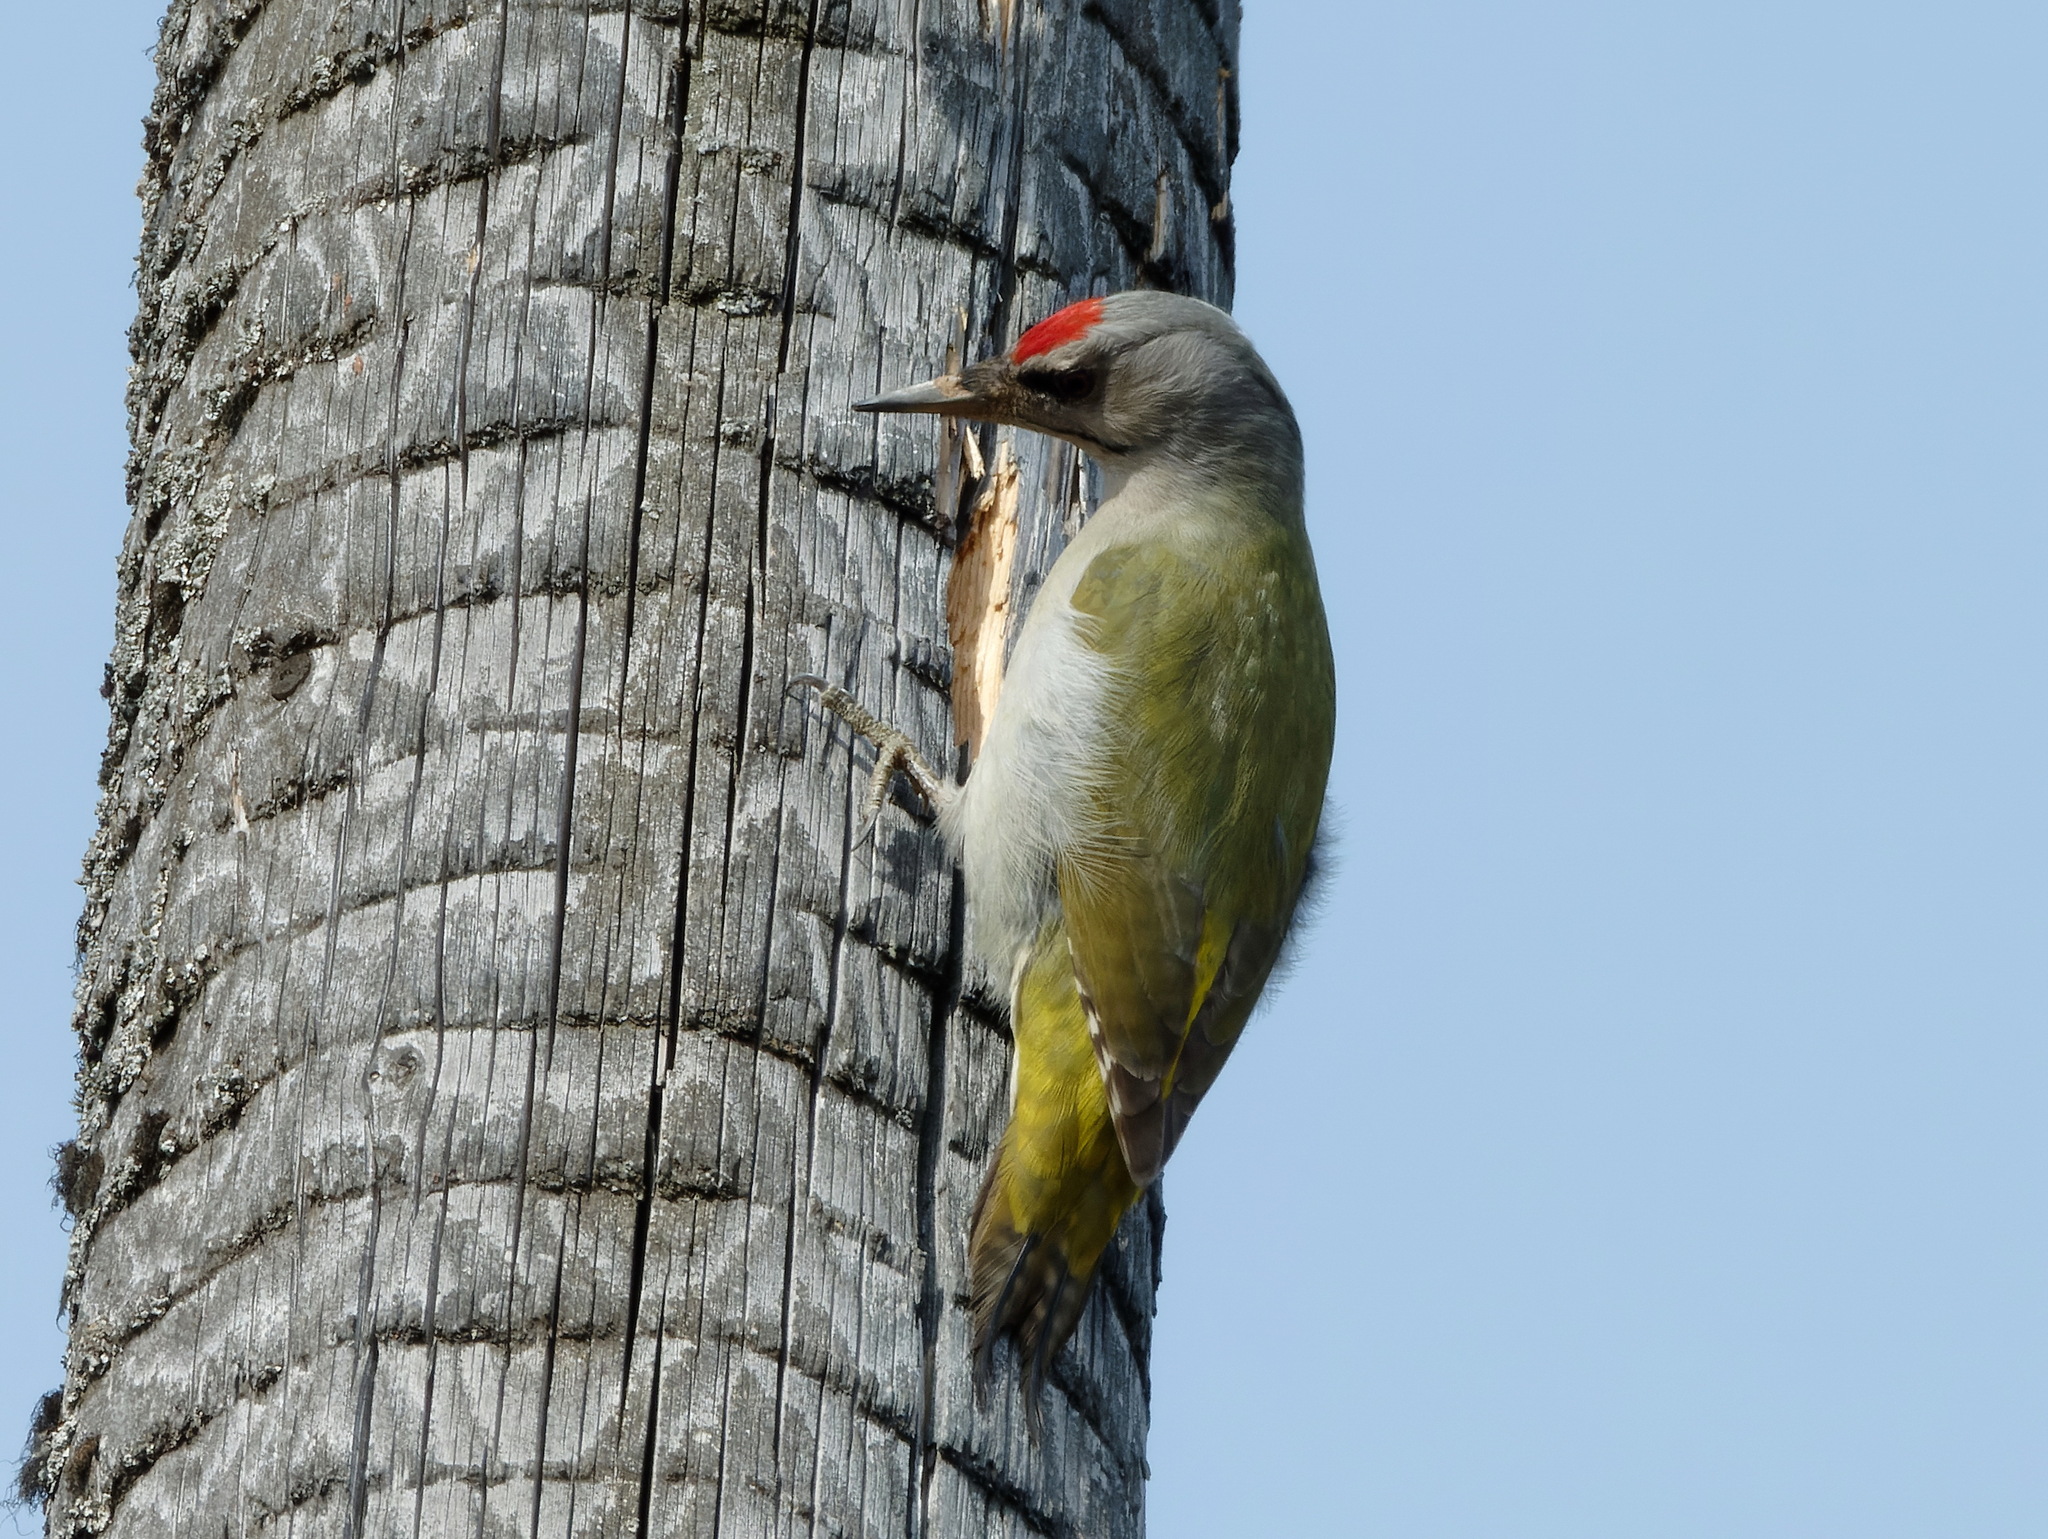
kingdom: Animalia
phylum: Chordata
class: Aves
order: Piciformes
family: Picidae
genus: Picus
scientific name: Picus canus
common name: Grey-headed woodpecker
